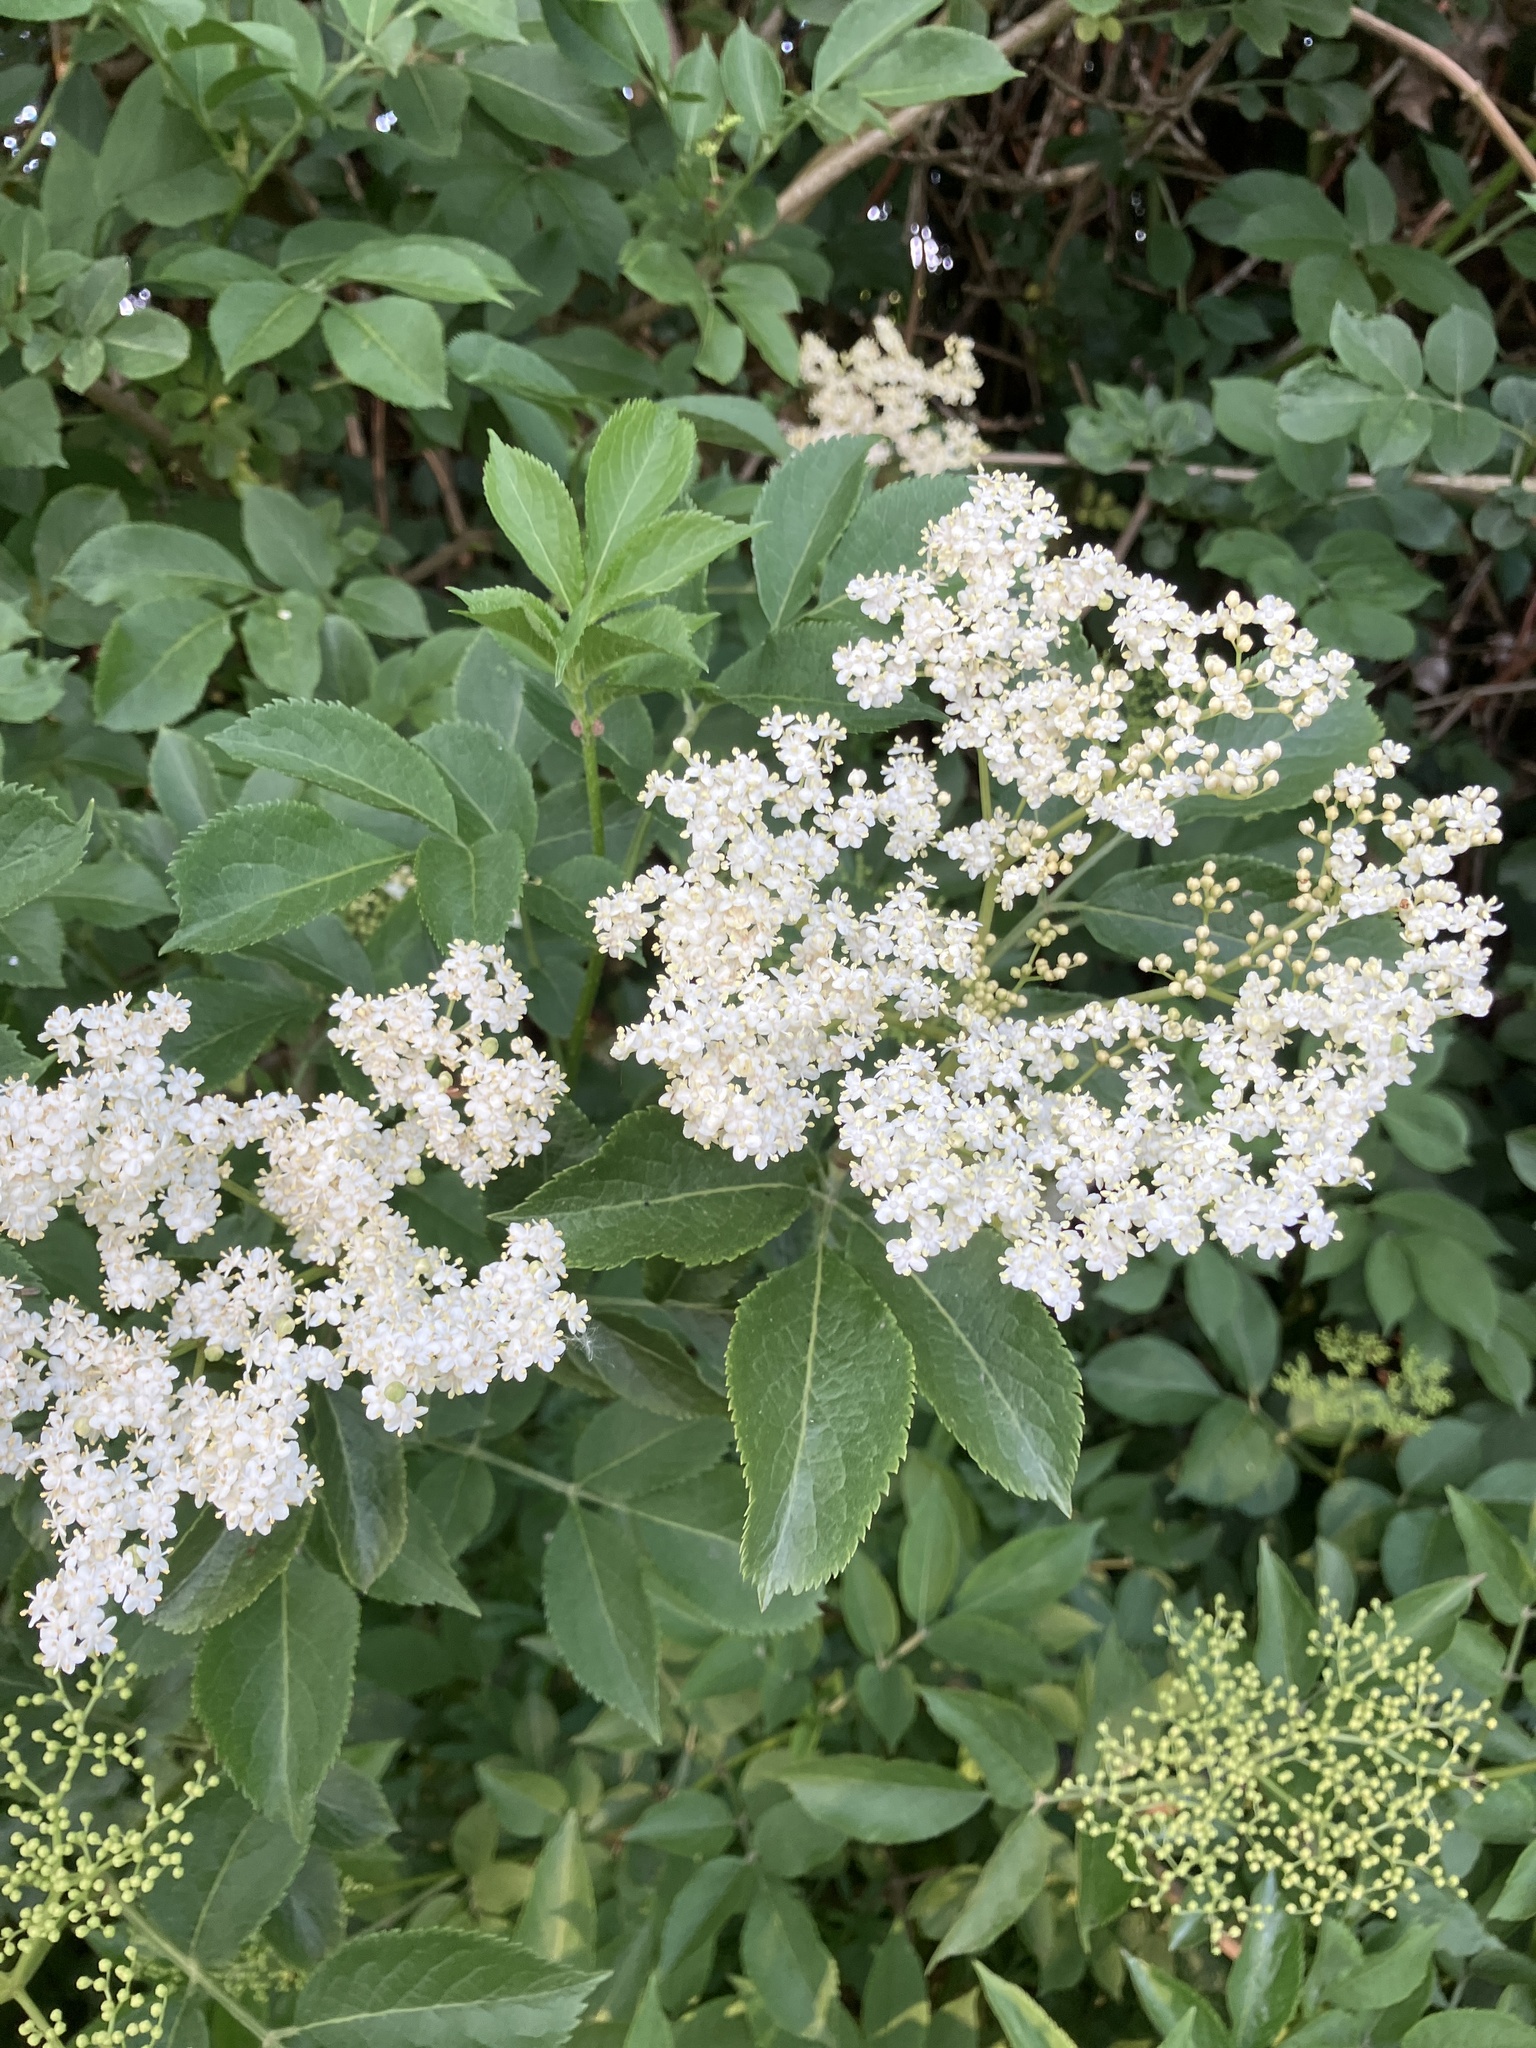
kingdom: Plantae
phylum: Tracheophyta
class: Magnoliopsida
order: Dipsacales
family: Viburnaceae
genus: Sambucus
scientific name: Sambucus nigra
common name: Elder
